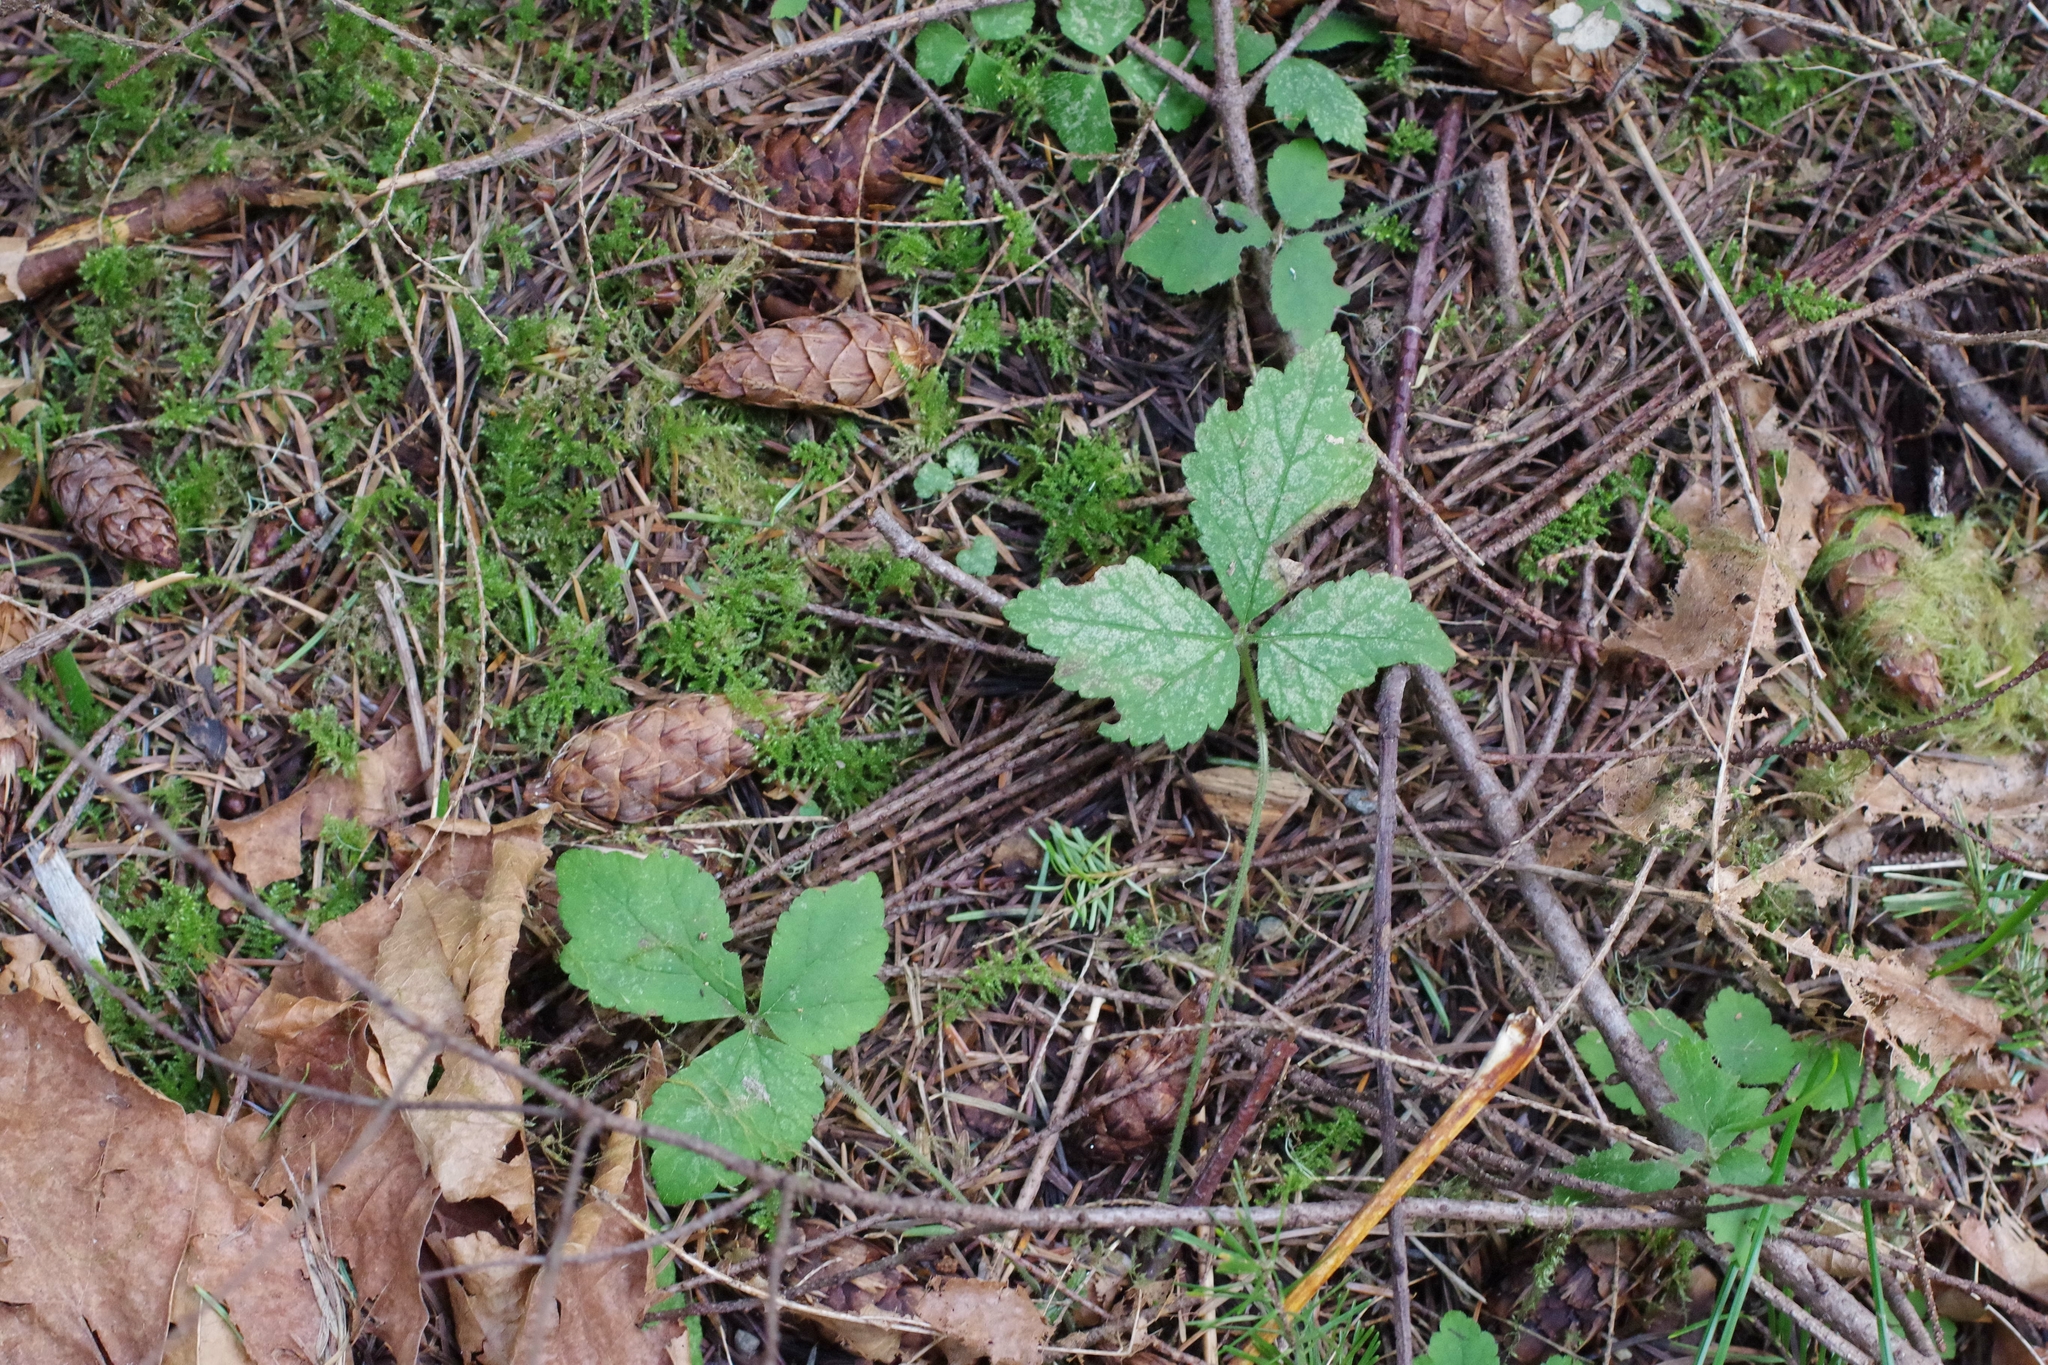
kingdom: Plantae
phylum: Tracheophyta
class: Magnoliopsida
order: Saxifragales
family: Saxifragaceae
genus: Tiarella
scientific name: Tiarella trifoliata
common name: Sugar-scoop
